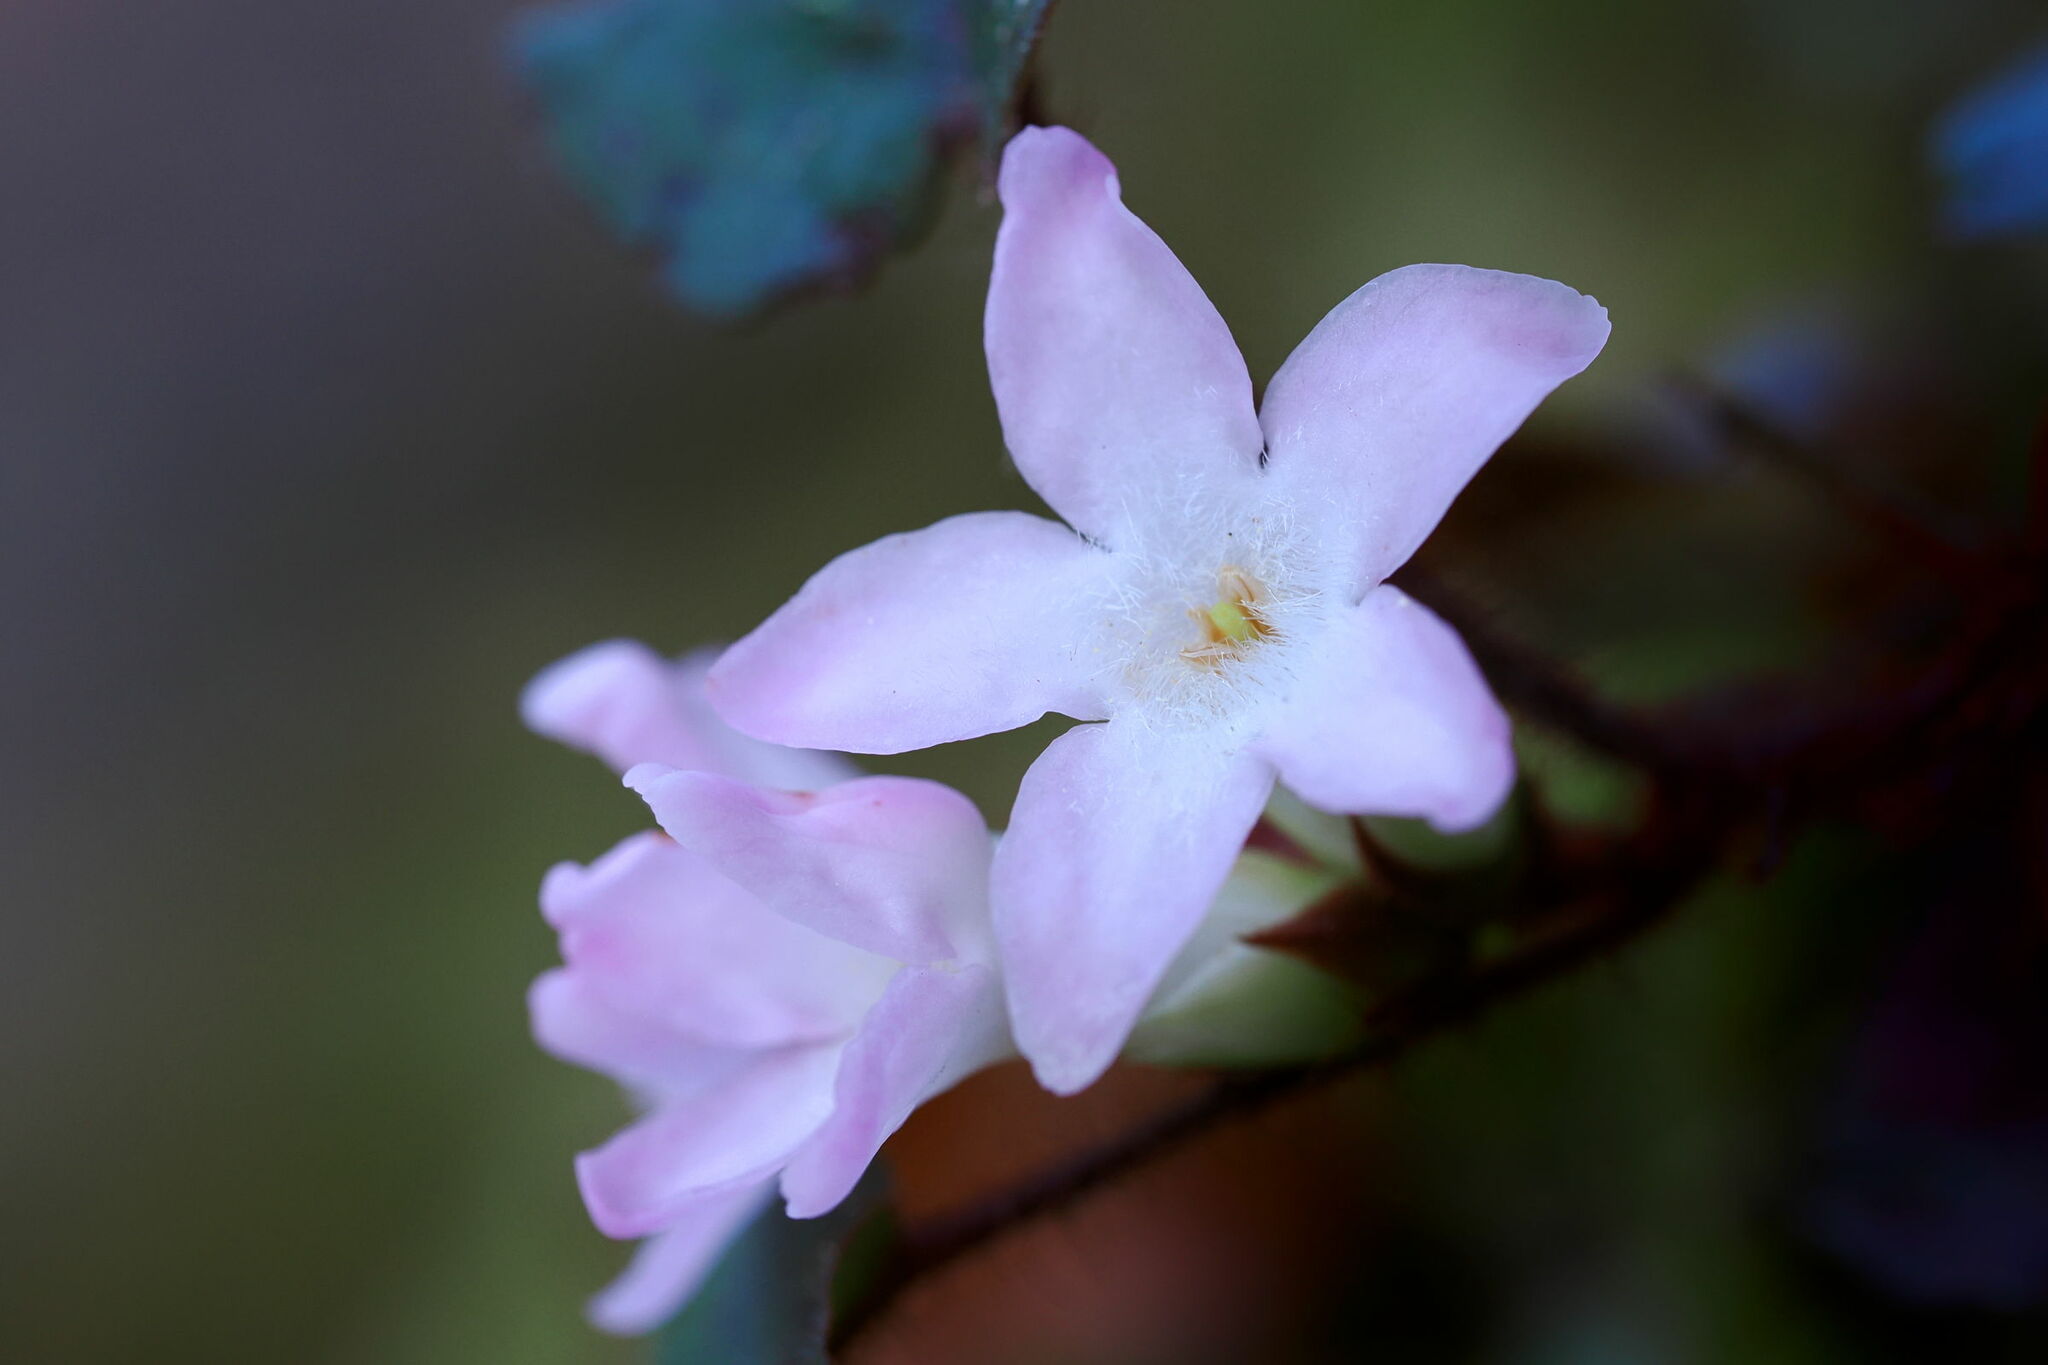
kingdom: Plantae
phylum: Tracheophyta
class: Magnoliopsida
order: Ericales
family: Ericaceae
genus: Epigaea
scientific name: Epigaea repens
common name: Gravelroot
